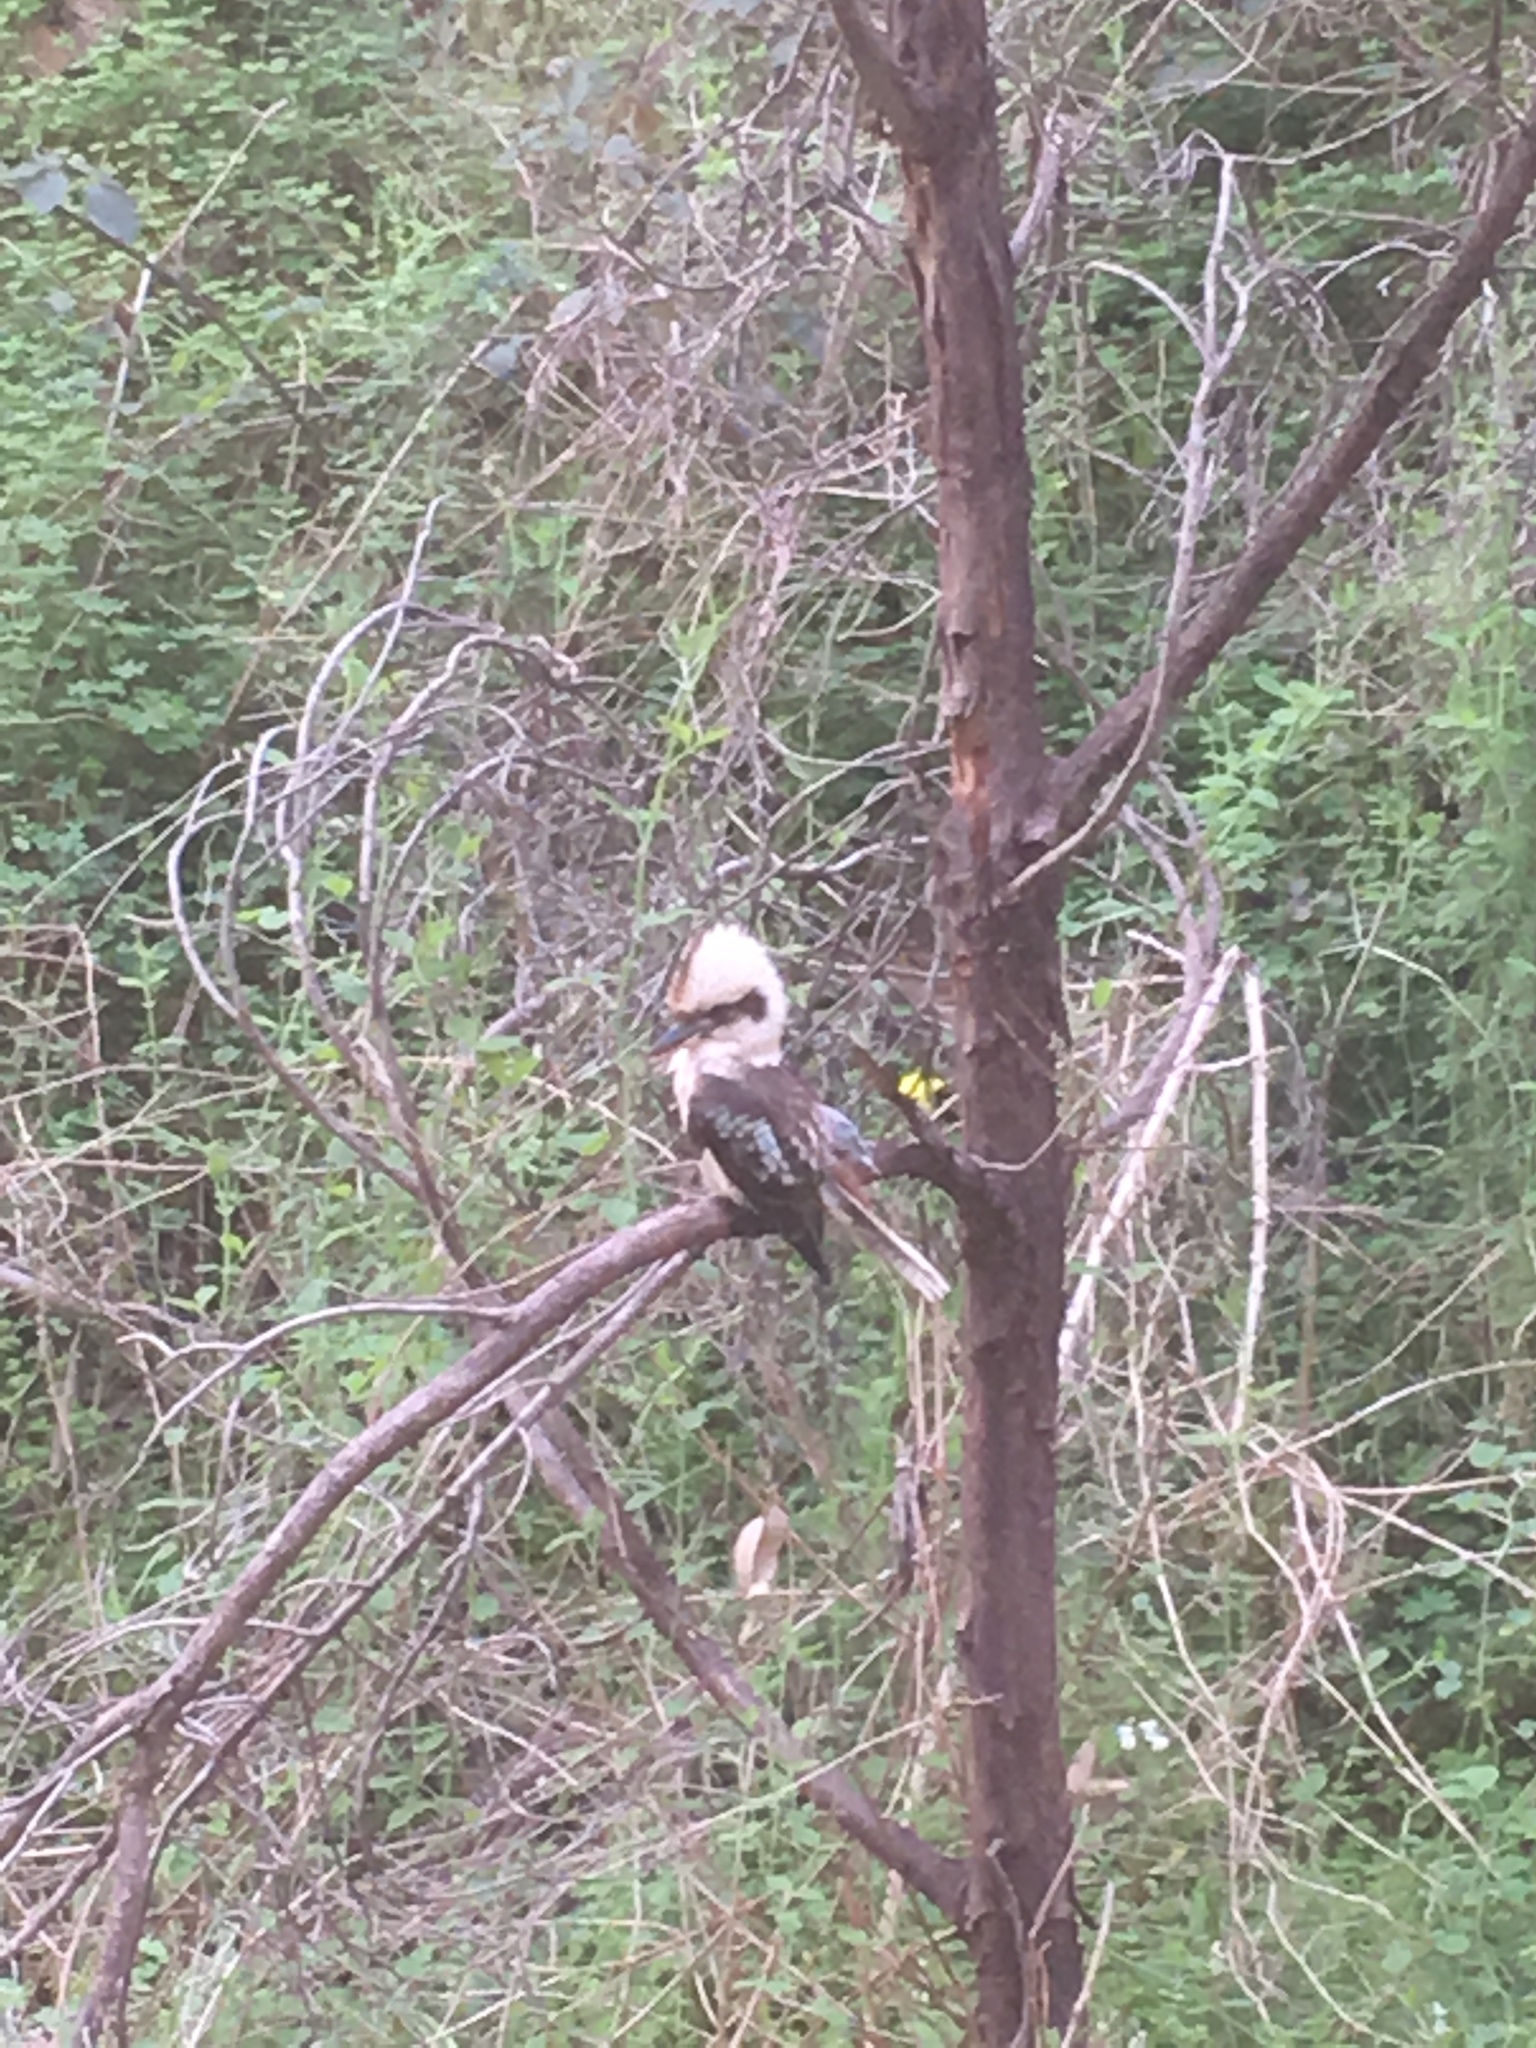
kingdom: Animalia
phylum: Chordata
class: Aves
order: Coraciiformes
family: Alcedinidae
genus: Dacelo
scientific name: Dacelo novaeguineae
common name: Laughing kookaburra
